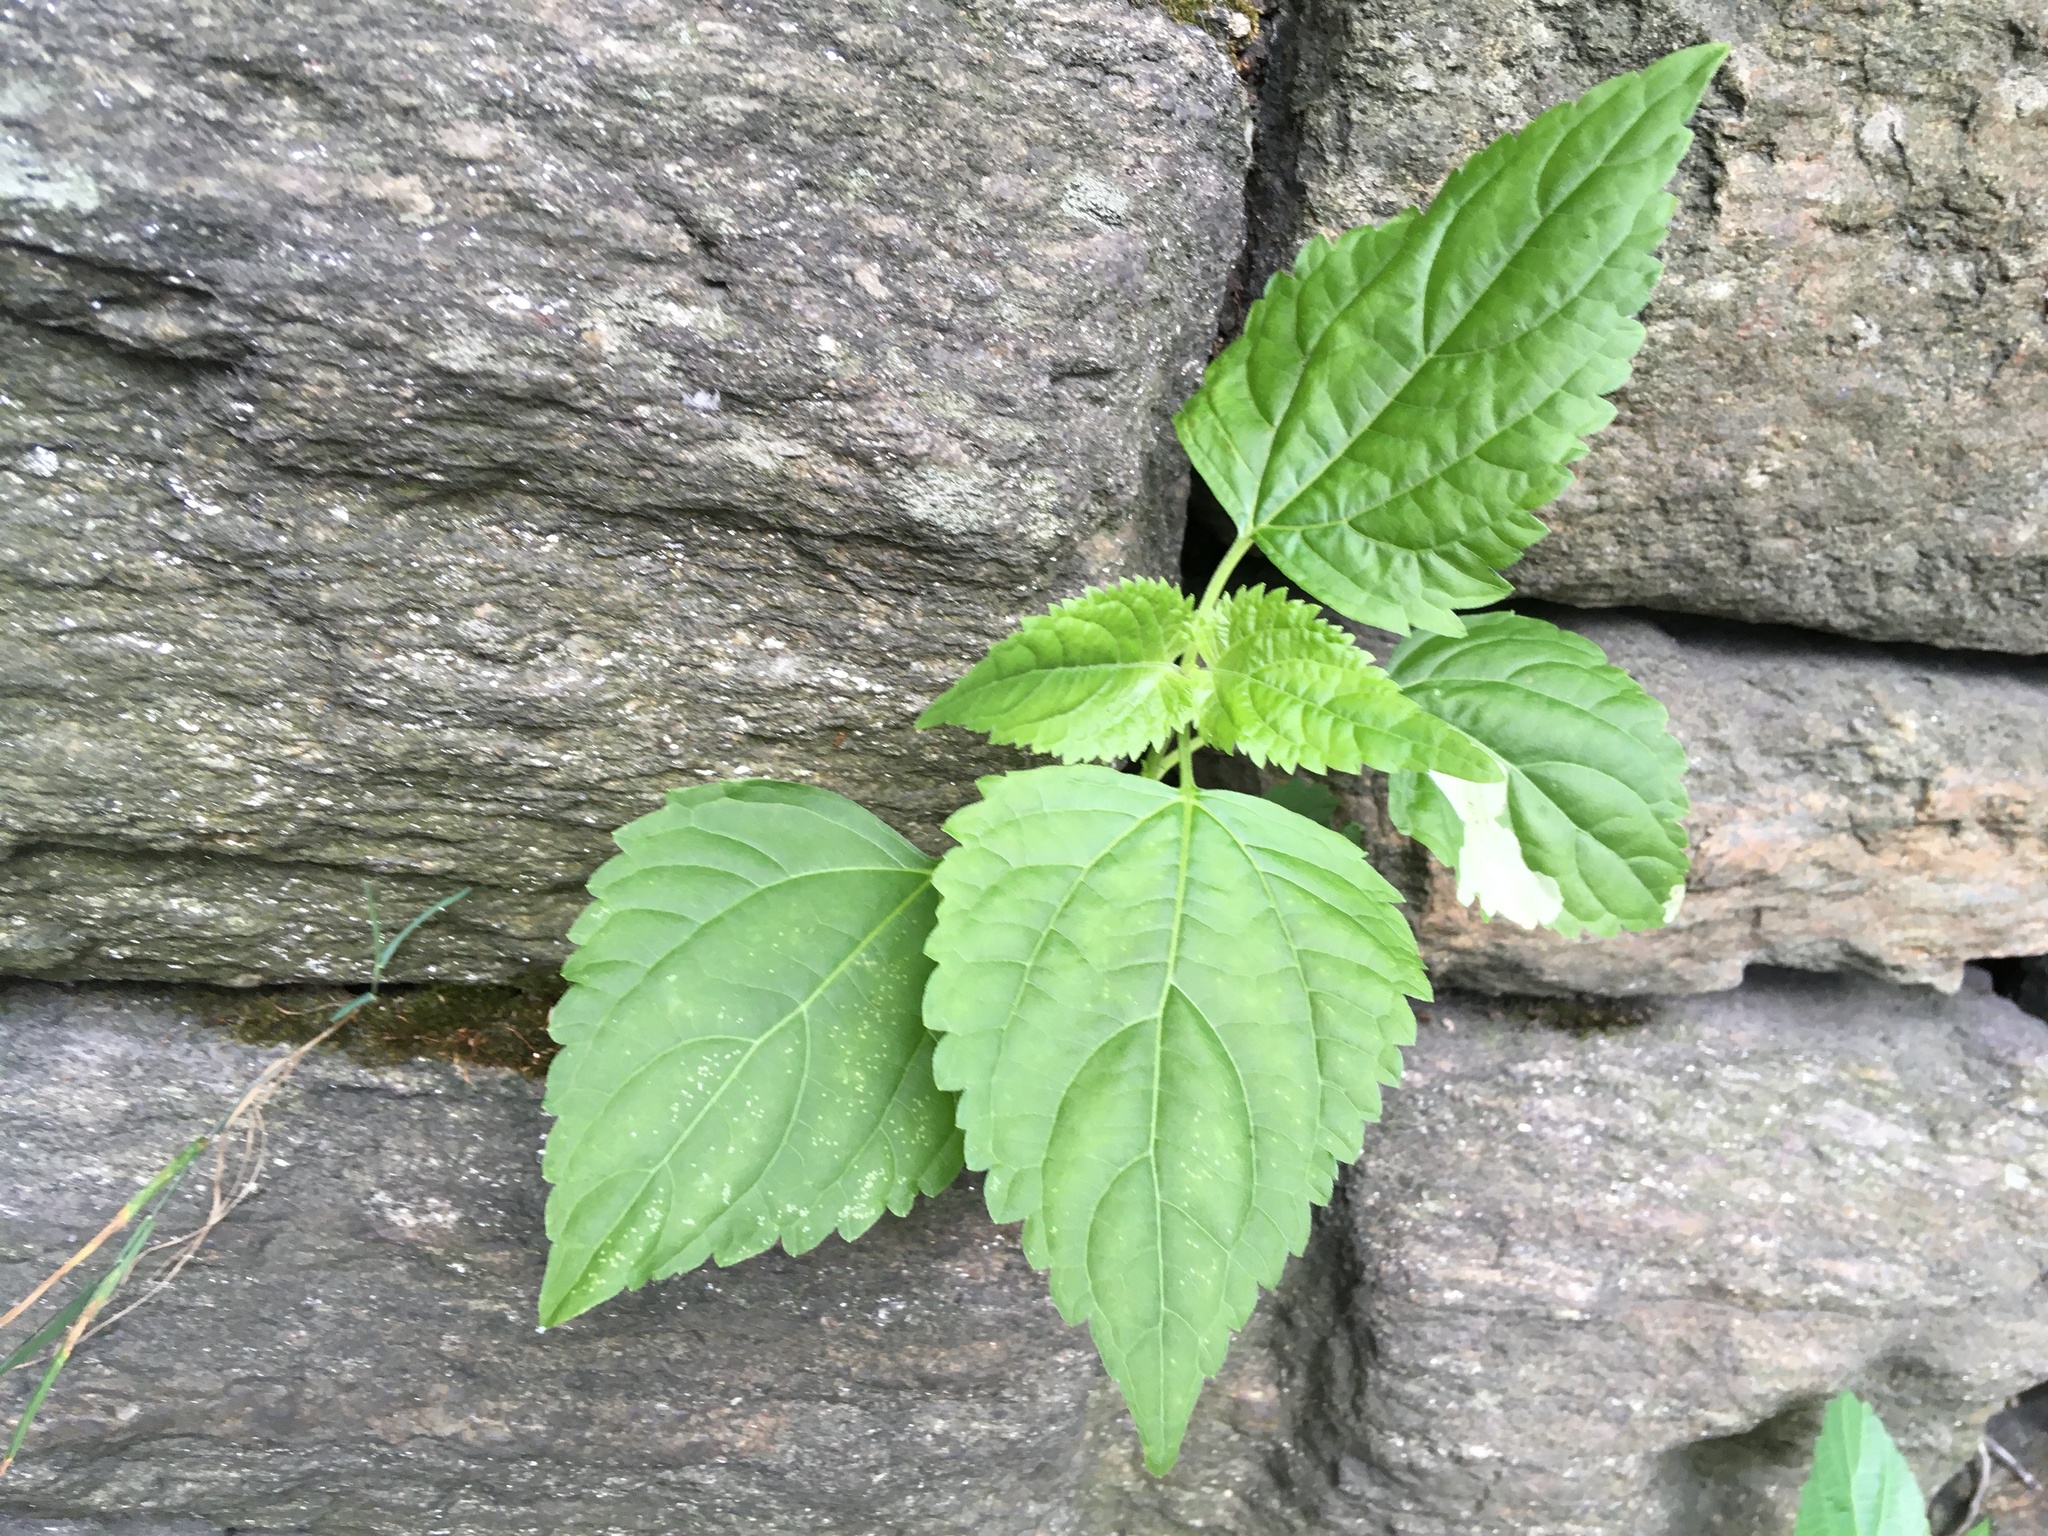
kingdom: Plantae
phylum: Tracheophyta
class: Magnoliopsida
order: Asterales
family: Asteraceae
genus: Ageratina
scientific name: Ageratina altissima
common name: White snakeroot
